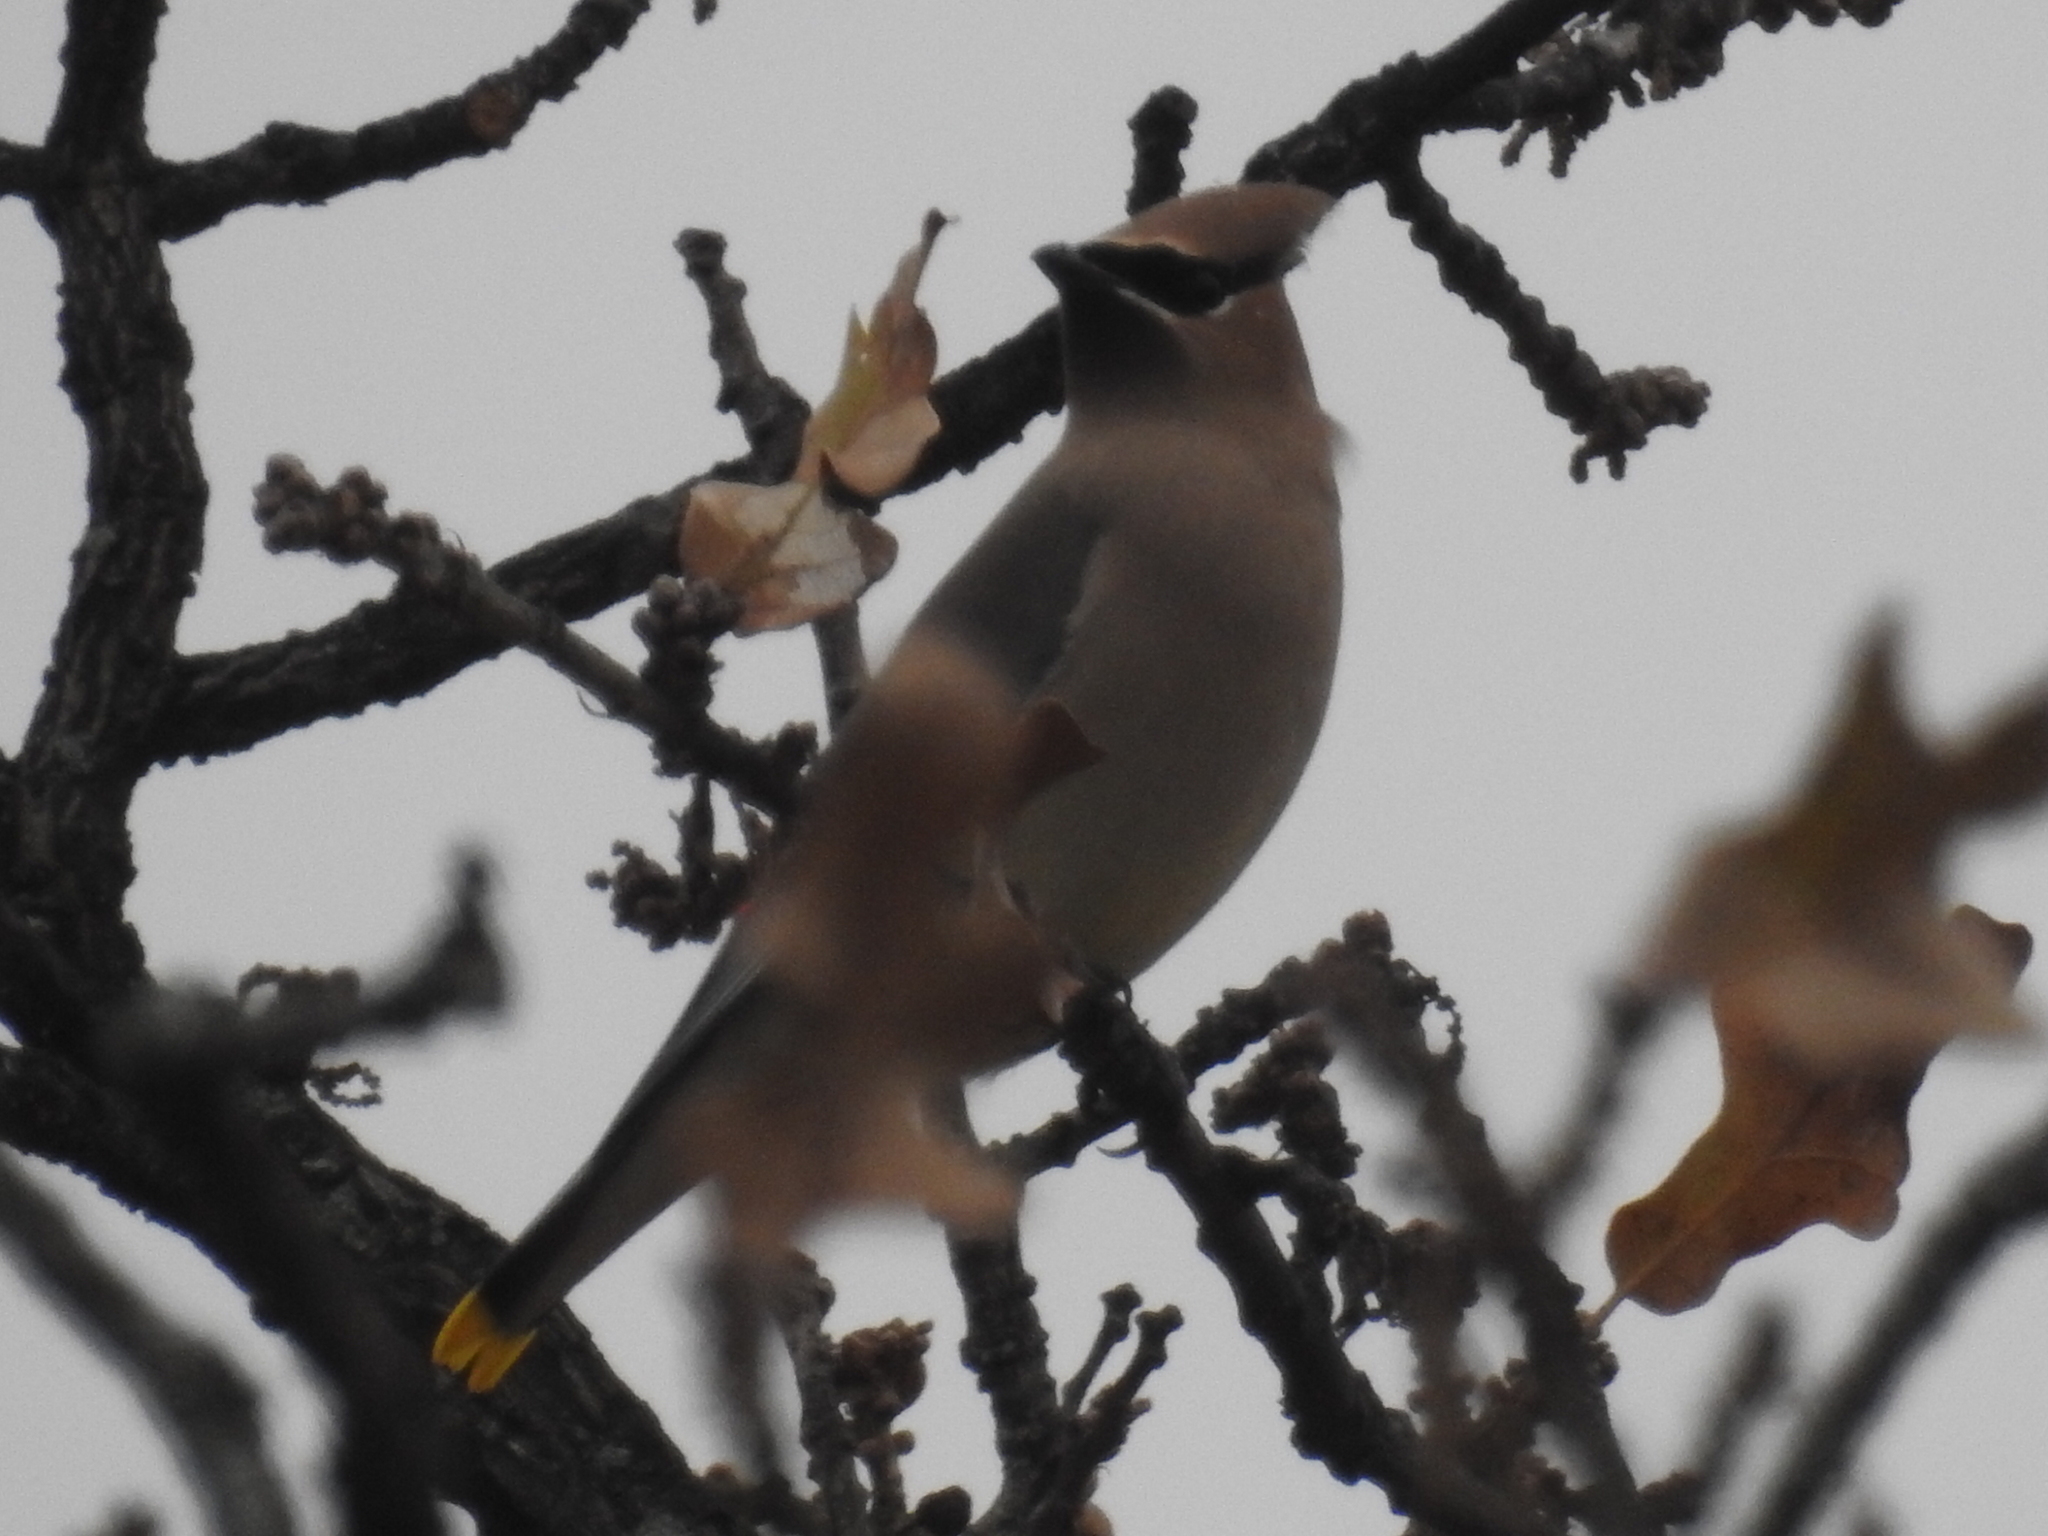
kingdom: Animalia
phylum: Chordata
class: Aves
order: Passeriformes
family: Bombycillidae
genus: Bombycilla
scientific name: Bombycilla cedrorum
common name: Cedar waxwing
